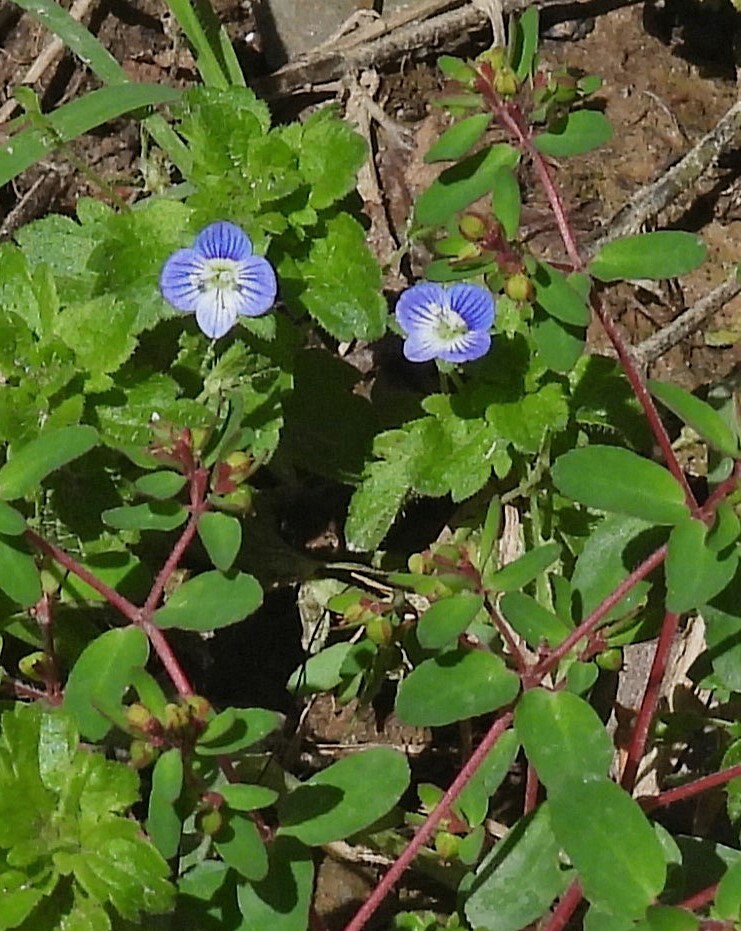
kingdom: Plantae
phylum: Tracheophyta
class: Magnoliopsida
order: Lamiales
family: Plantaginaceae
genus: Veronica
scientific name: Veronica persica
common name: Common field-speedwell
